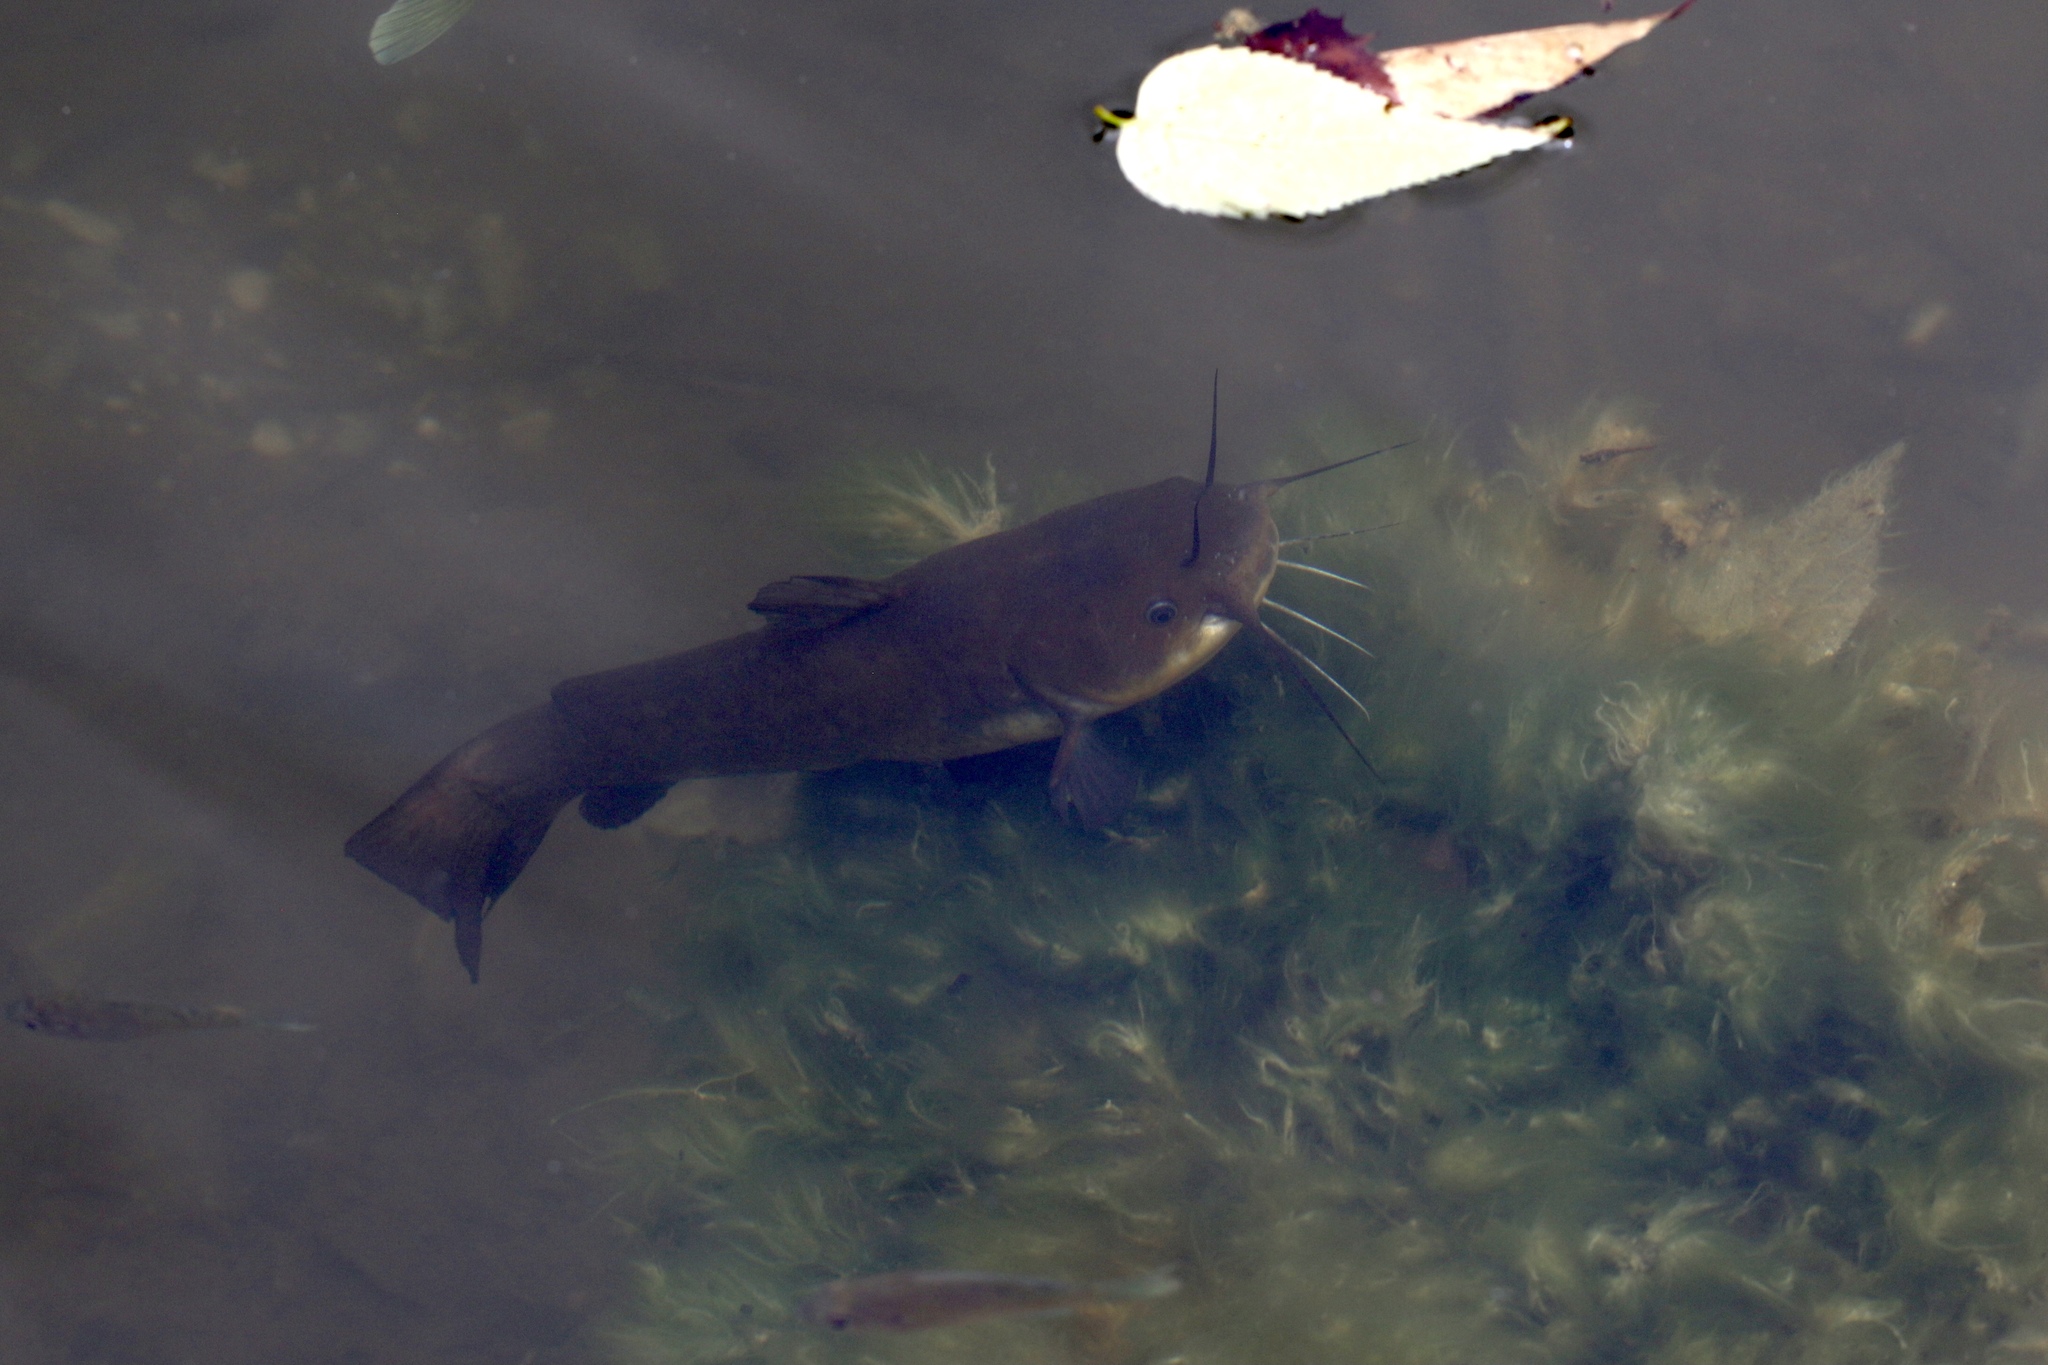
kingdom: Animalia
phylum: Chordata
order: Siluriformes
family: Ictaluridae
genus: Ameiurus
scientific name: Ameiurus natalis
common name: Yellow bullhead
